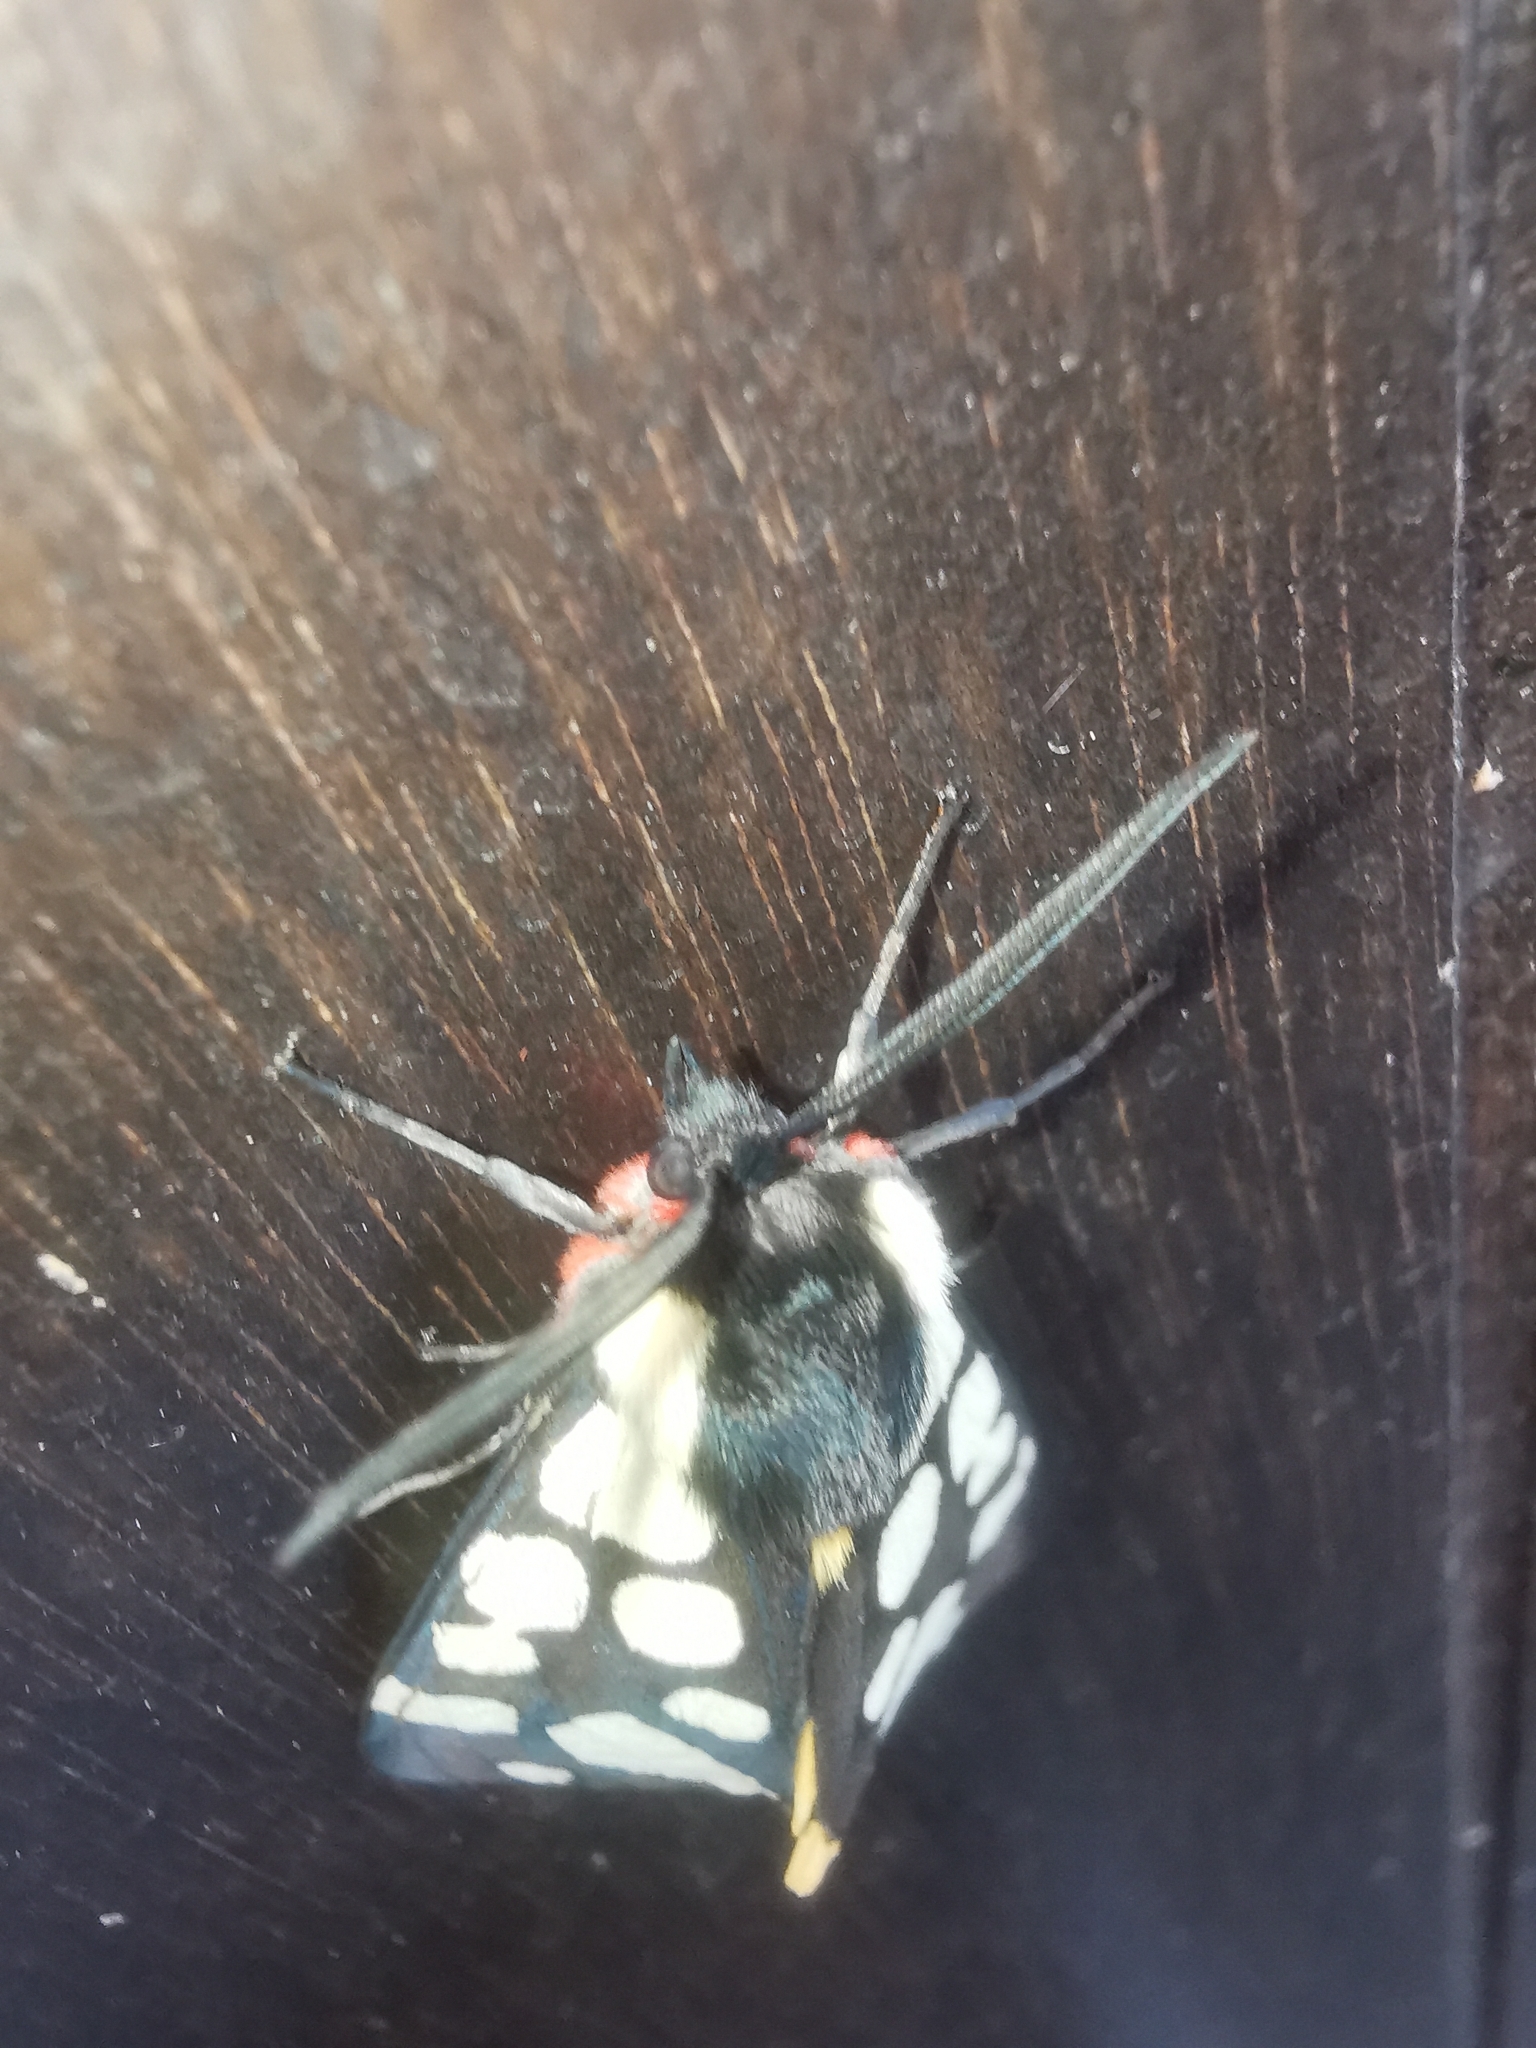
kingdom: Animalia
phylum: Arthropoda
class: Insecta
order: Lepidoptera
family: Erebidae
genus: Epicallia
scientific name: Epicallia villica
